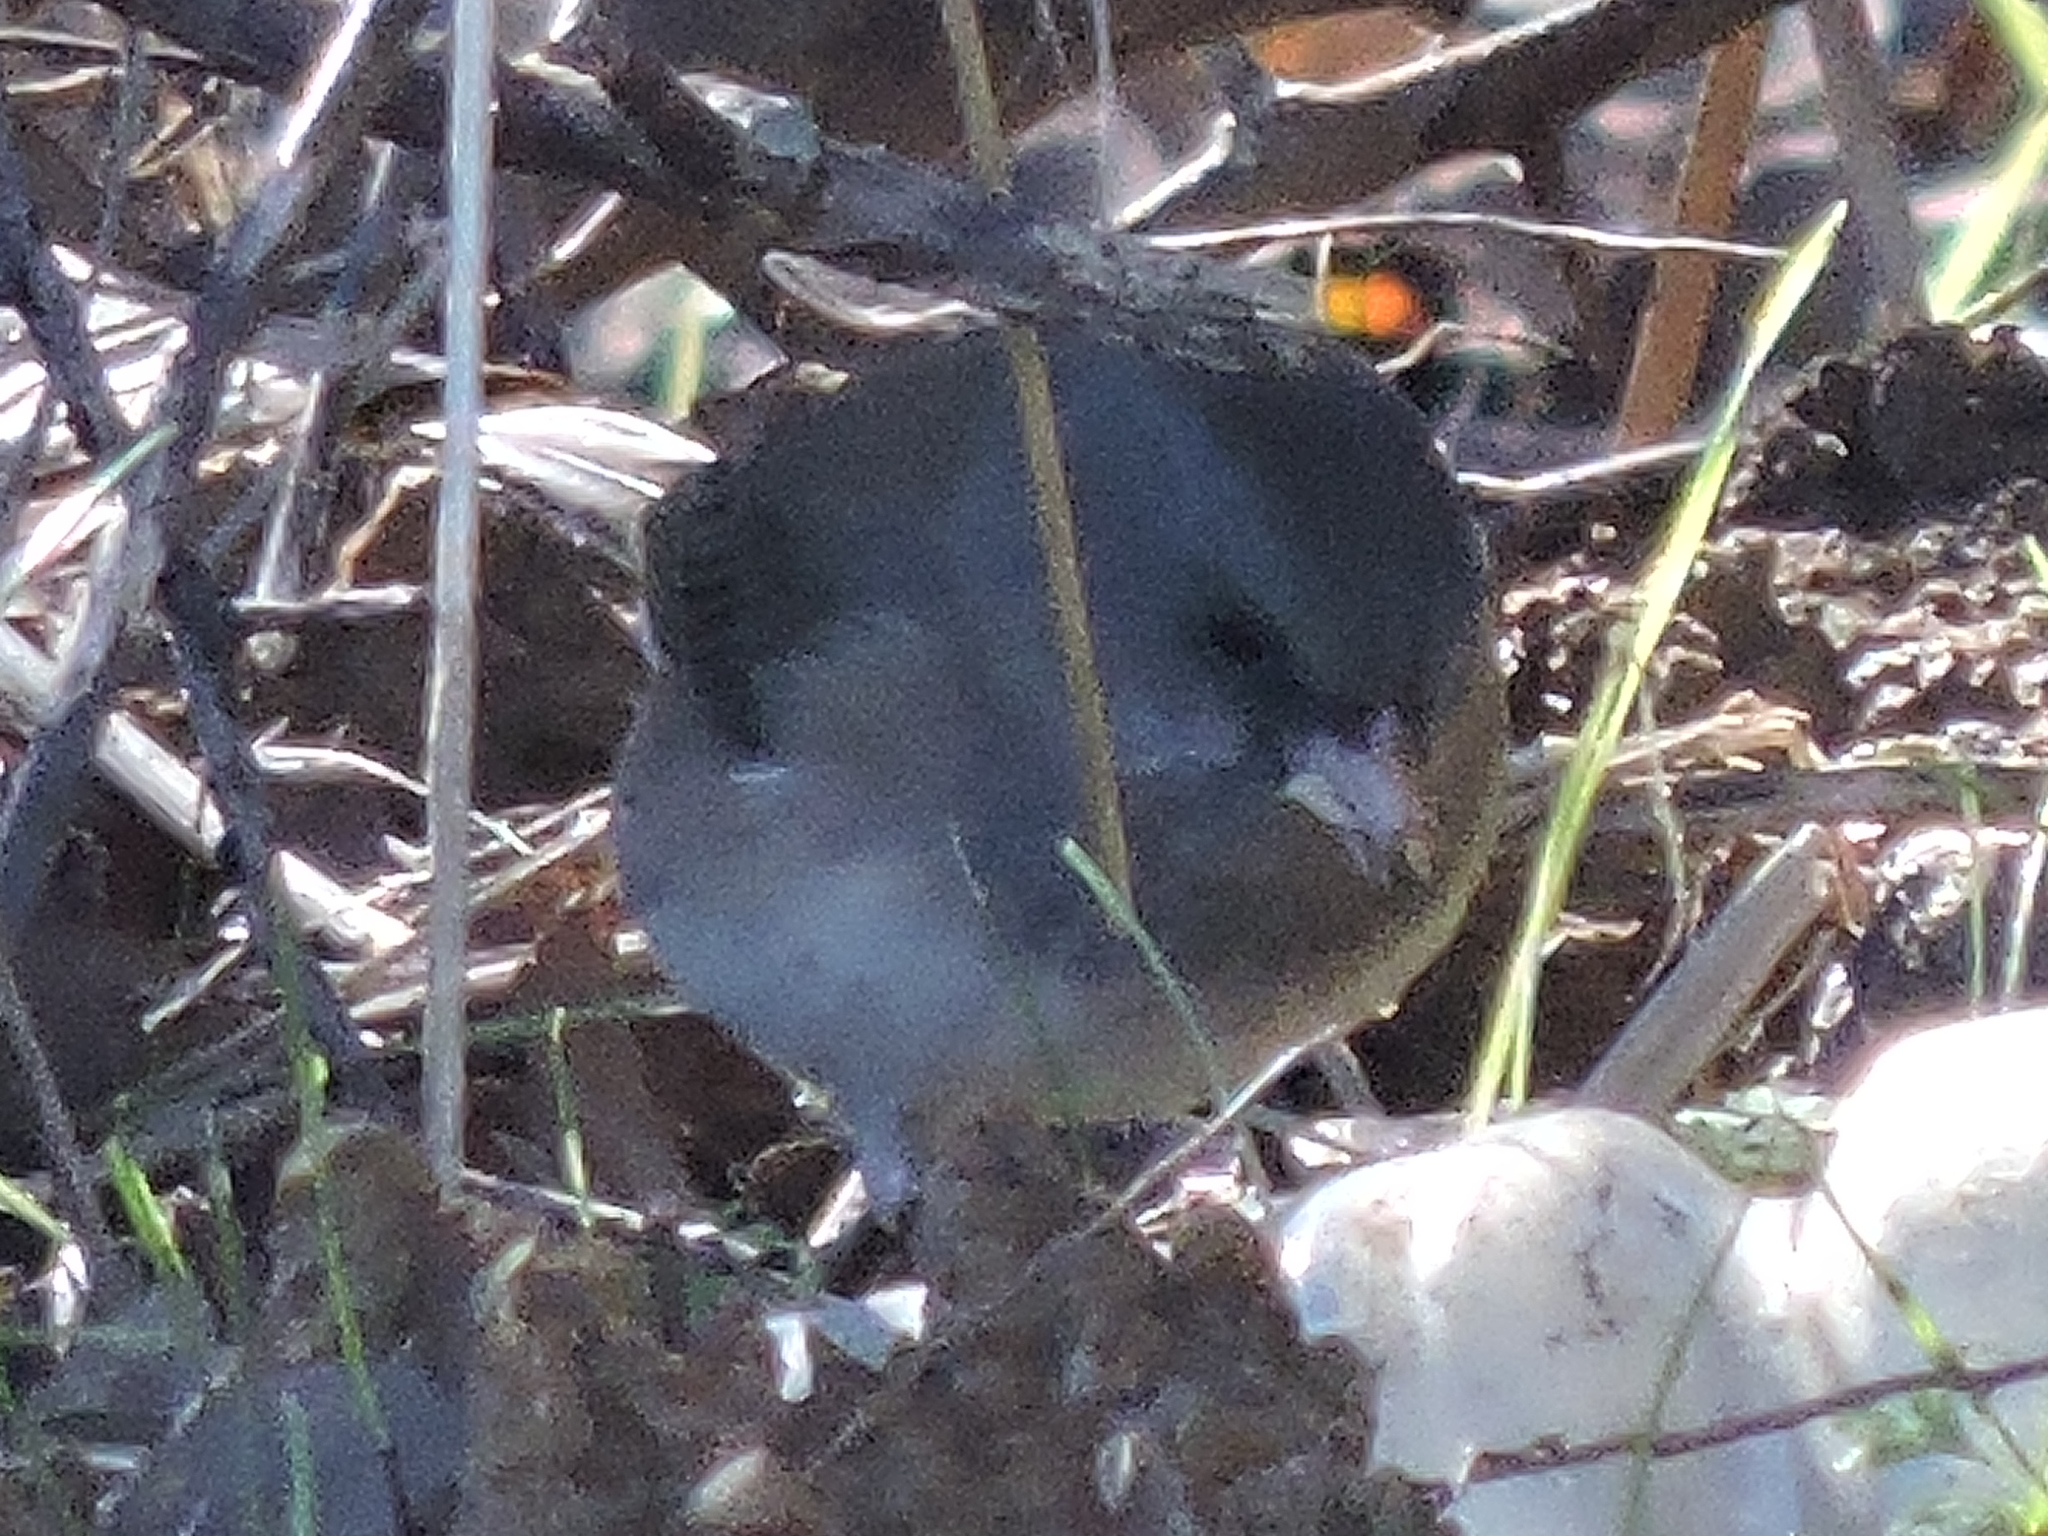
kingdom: Animalia
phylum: Chordata
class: Aves
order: Passeriformes
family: Passerellidae
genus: Junco
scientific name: Junco hyemalis
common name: Dark-eyed junco
